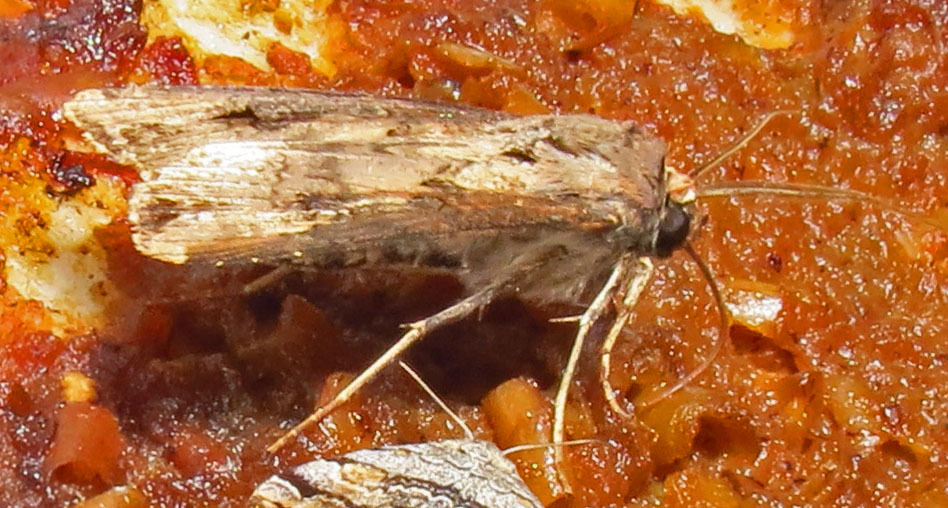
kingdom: Animalia
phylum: Arthropoda
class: Insecta
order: Lepidoptera
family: Noctuidae
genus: Agrotis
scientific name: Agrotis ipsilon
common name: Dark sword-grass
